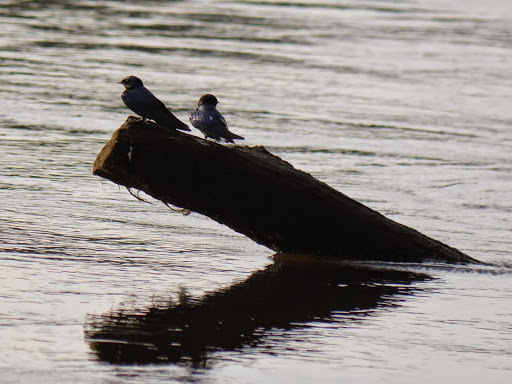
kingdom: Animalia
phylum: Chordata
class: Aves
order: Passeriformes
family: Hirundinidae
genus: Hirundo
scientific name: Hirundo nigrita
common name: White-bibbed swallow
